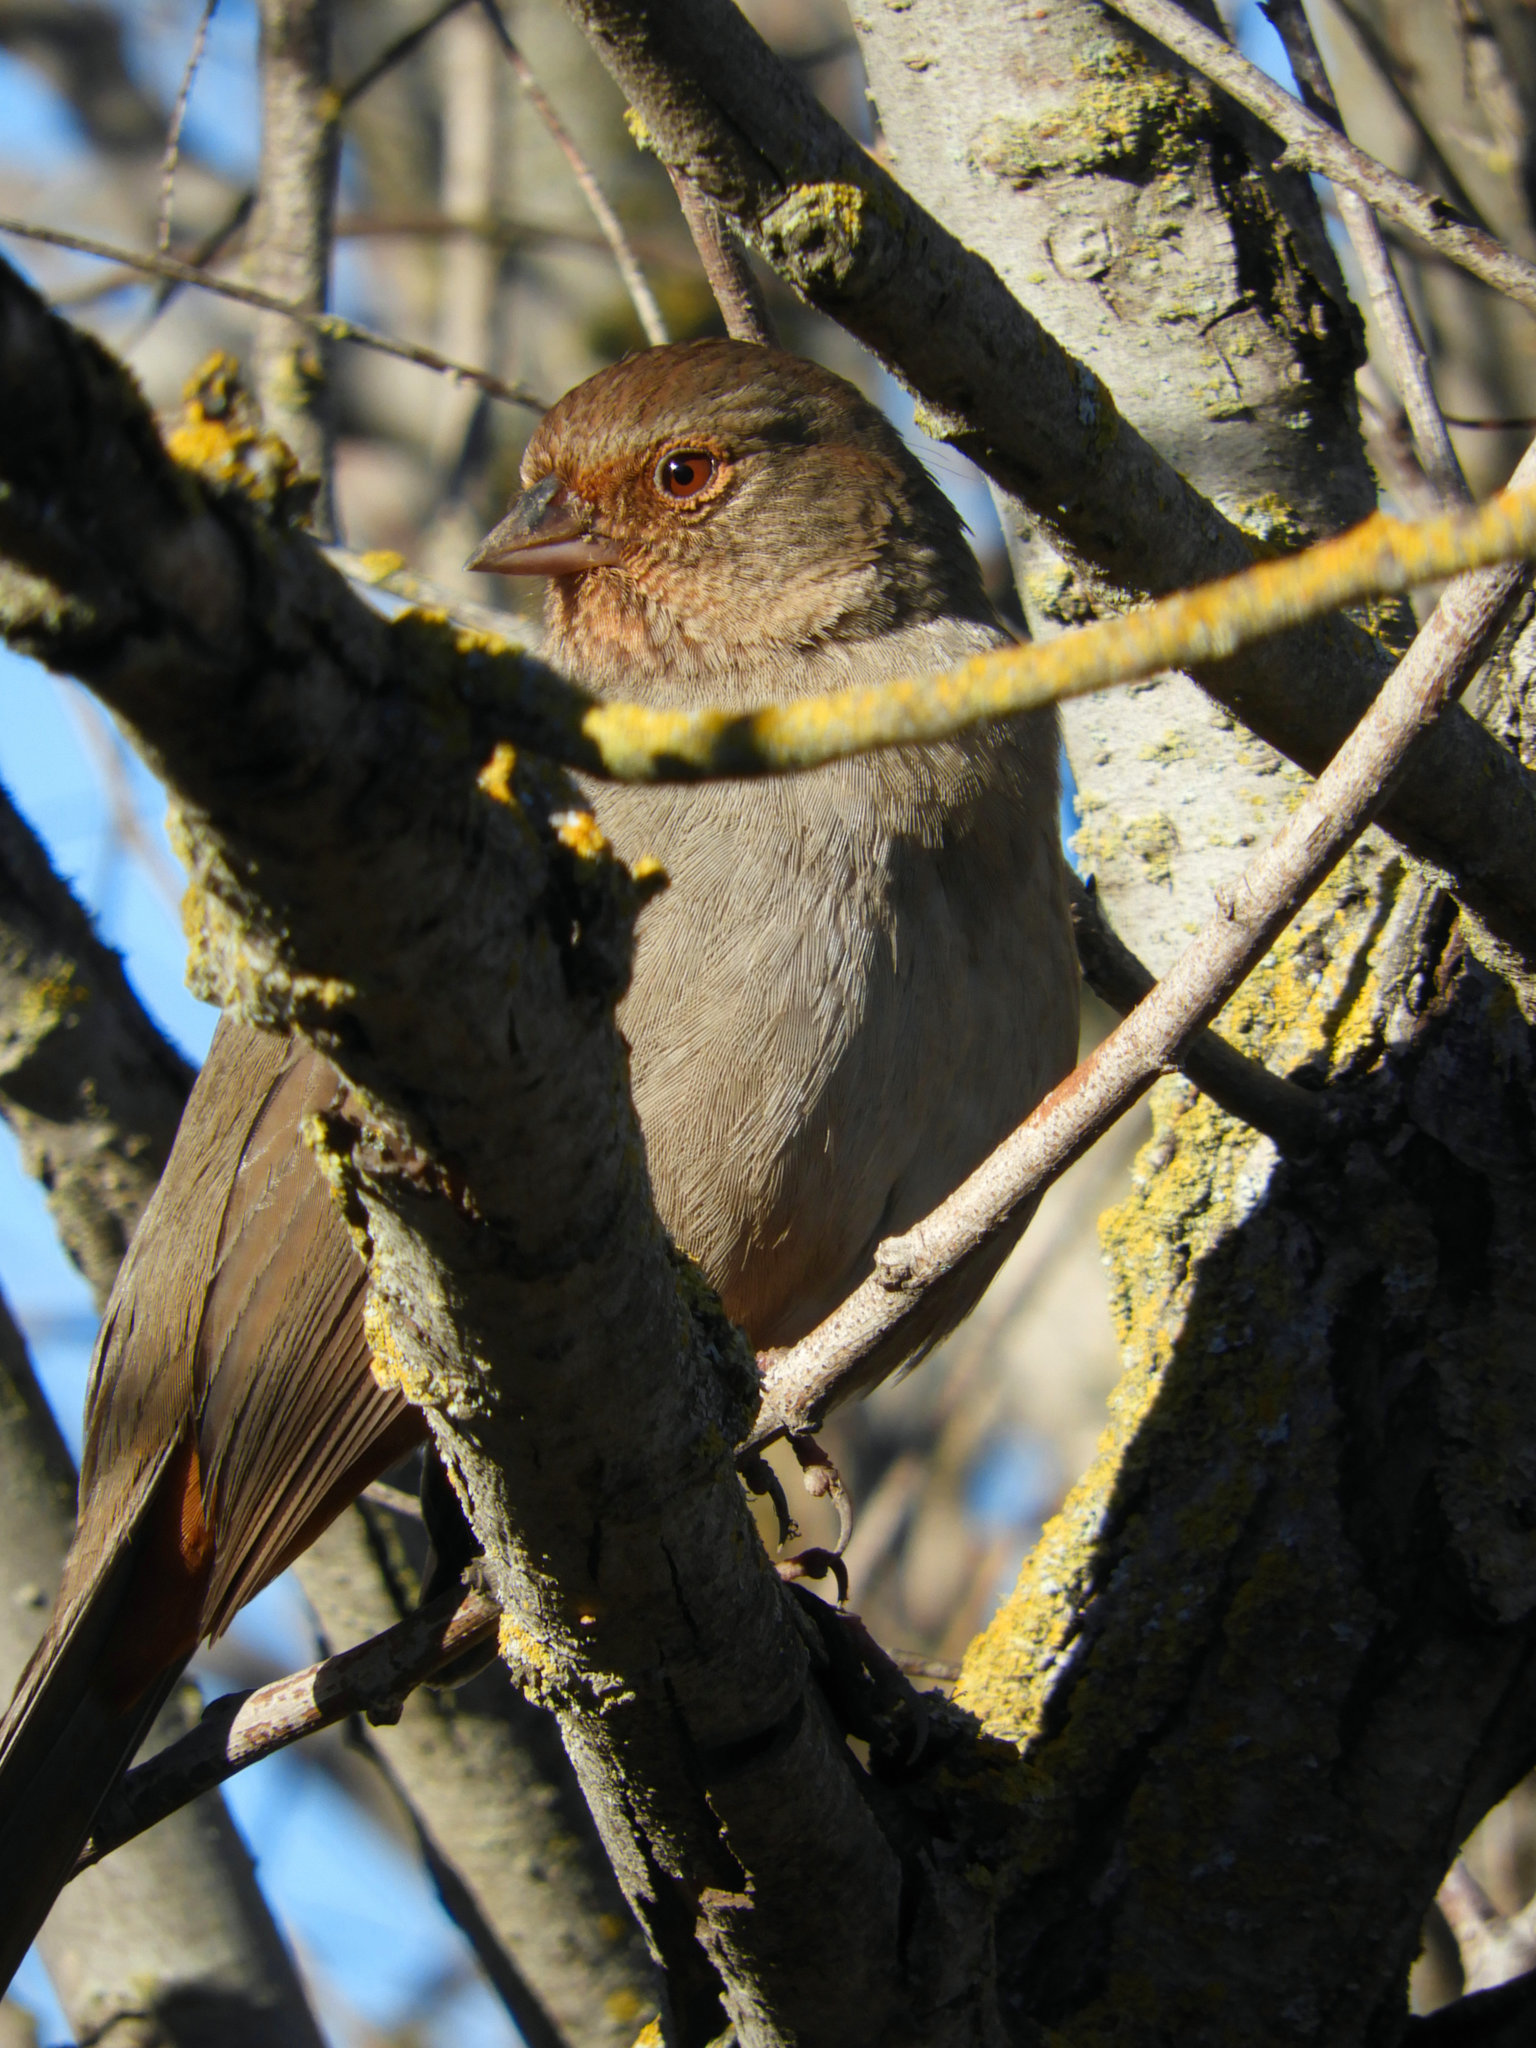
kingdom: Animalia
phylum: Chordata
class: Aves
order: Passeriformes
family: Passerellidae
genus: Melozone
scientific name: Melozone crissalis
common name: California towhee
